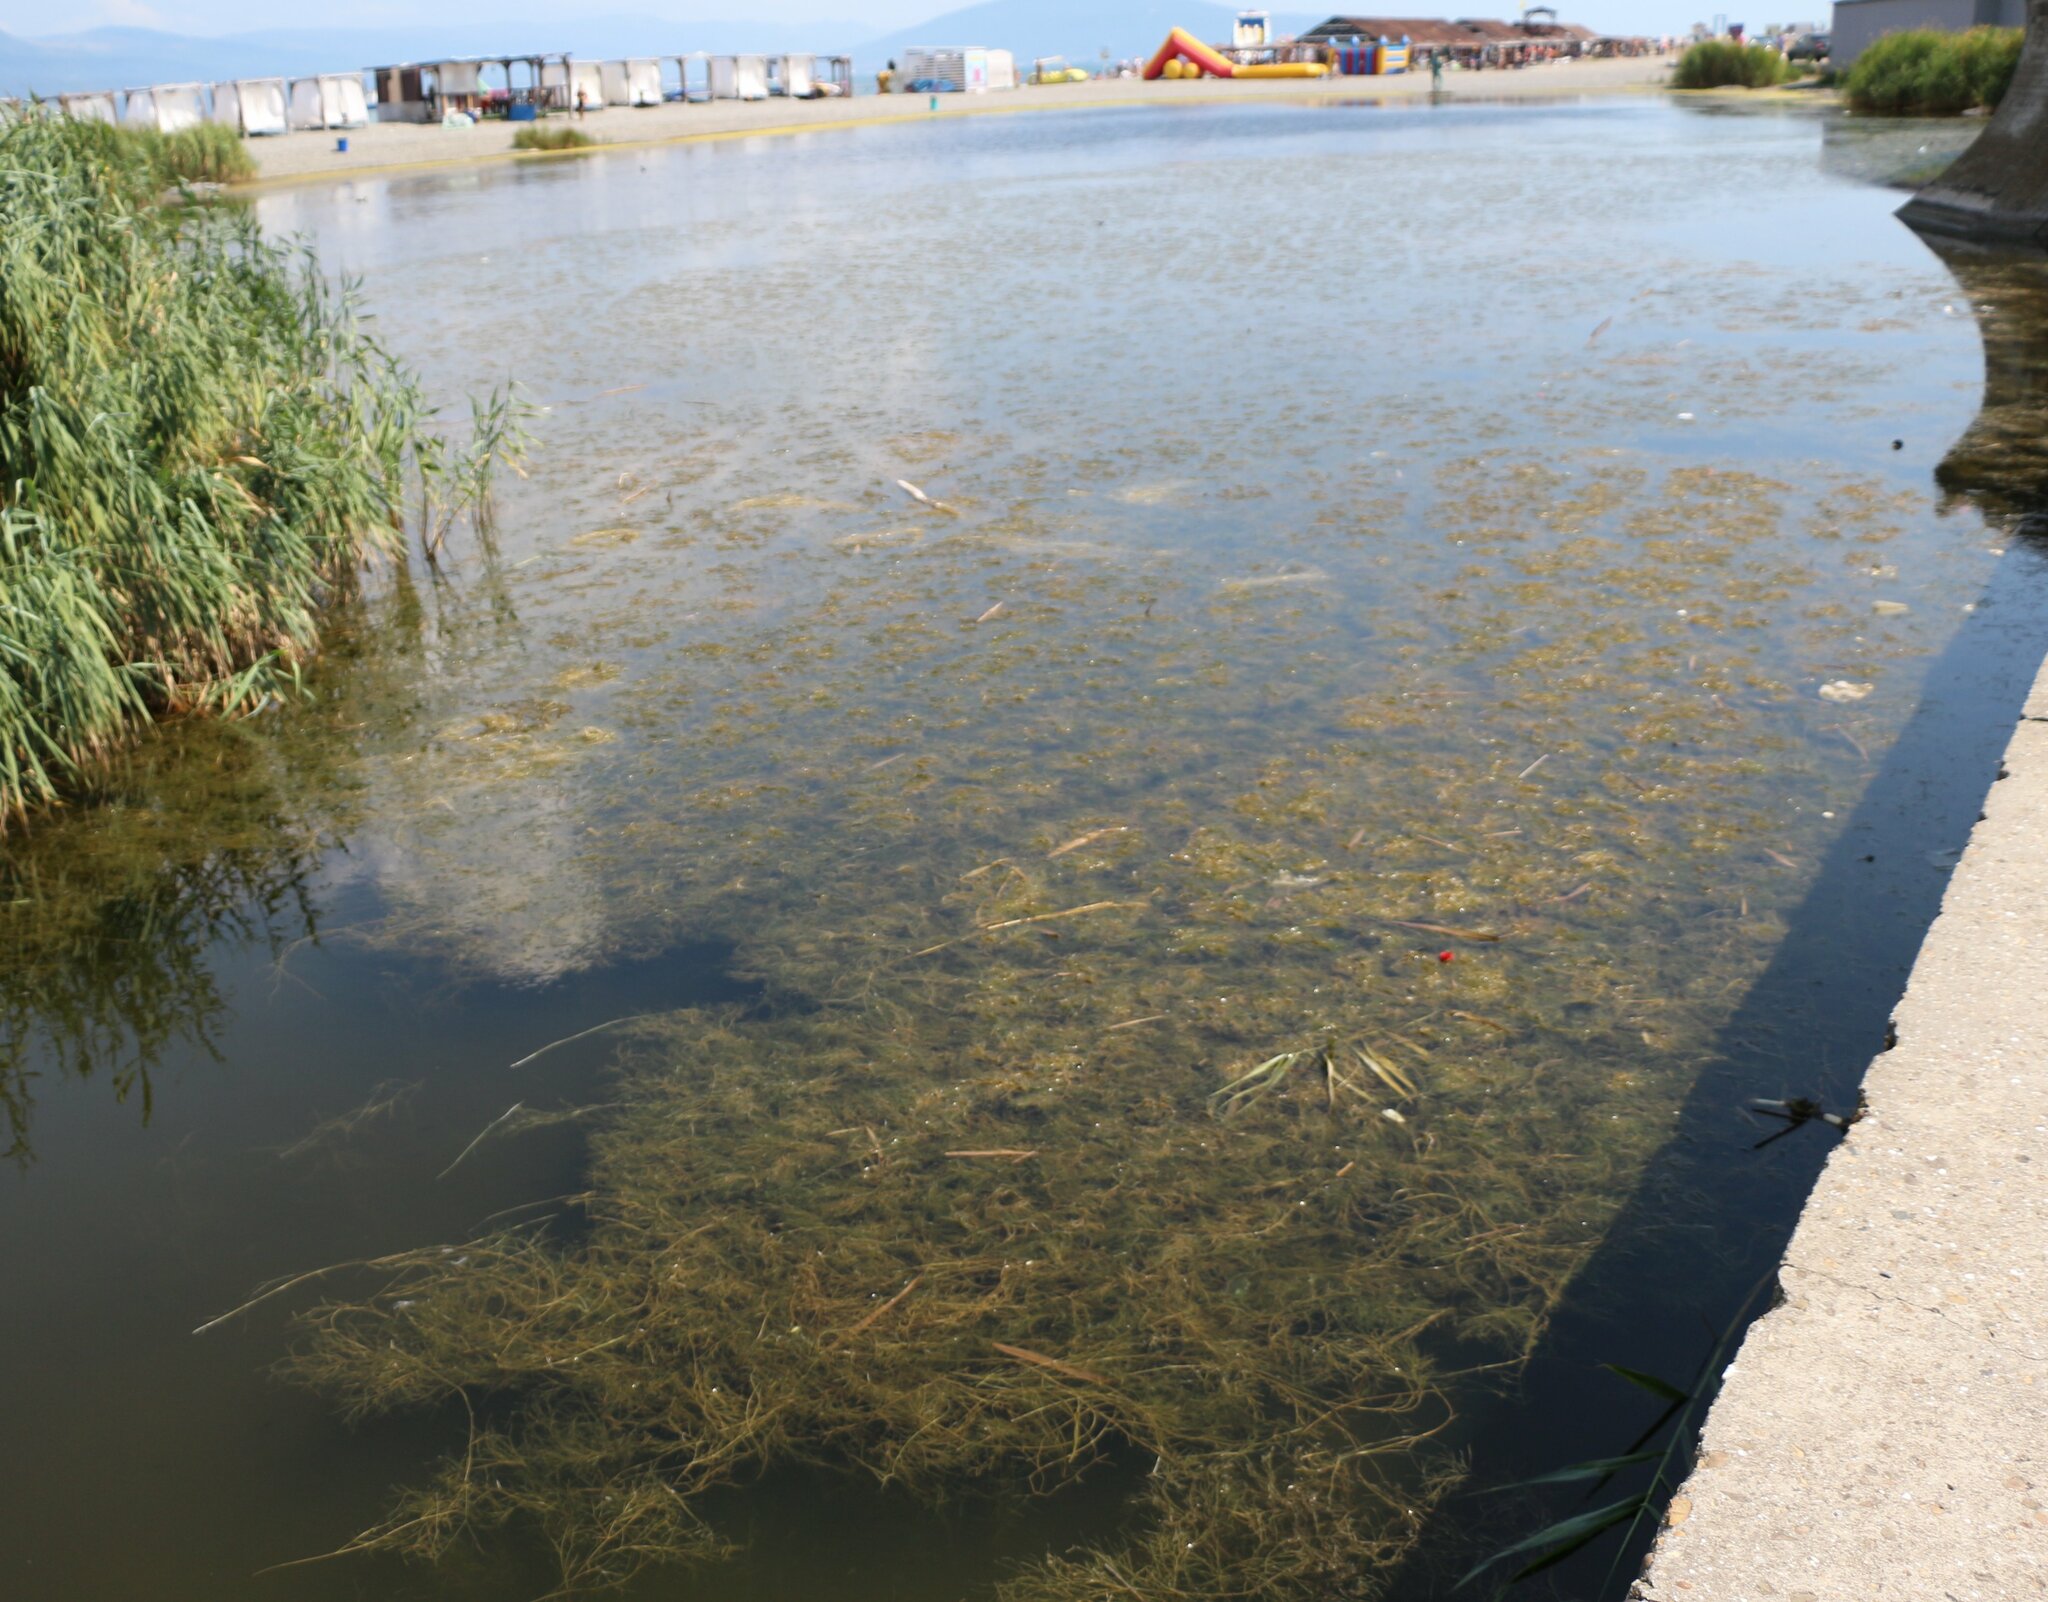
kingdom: Plantae
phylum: Tracheophyta
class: Liliopsida
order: Alismatales
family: Potamogetonaceae
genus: Stuckenia
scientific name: Stuckenia pectinata
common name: Sago pondweed
